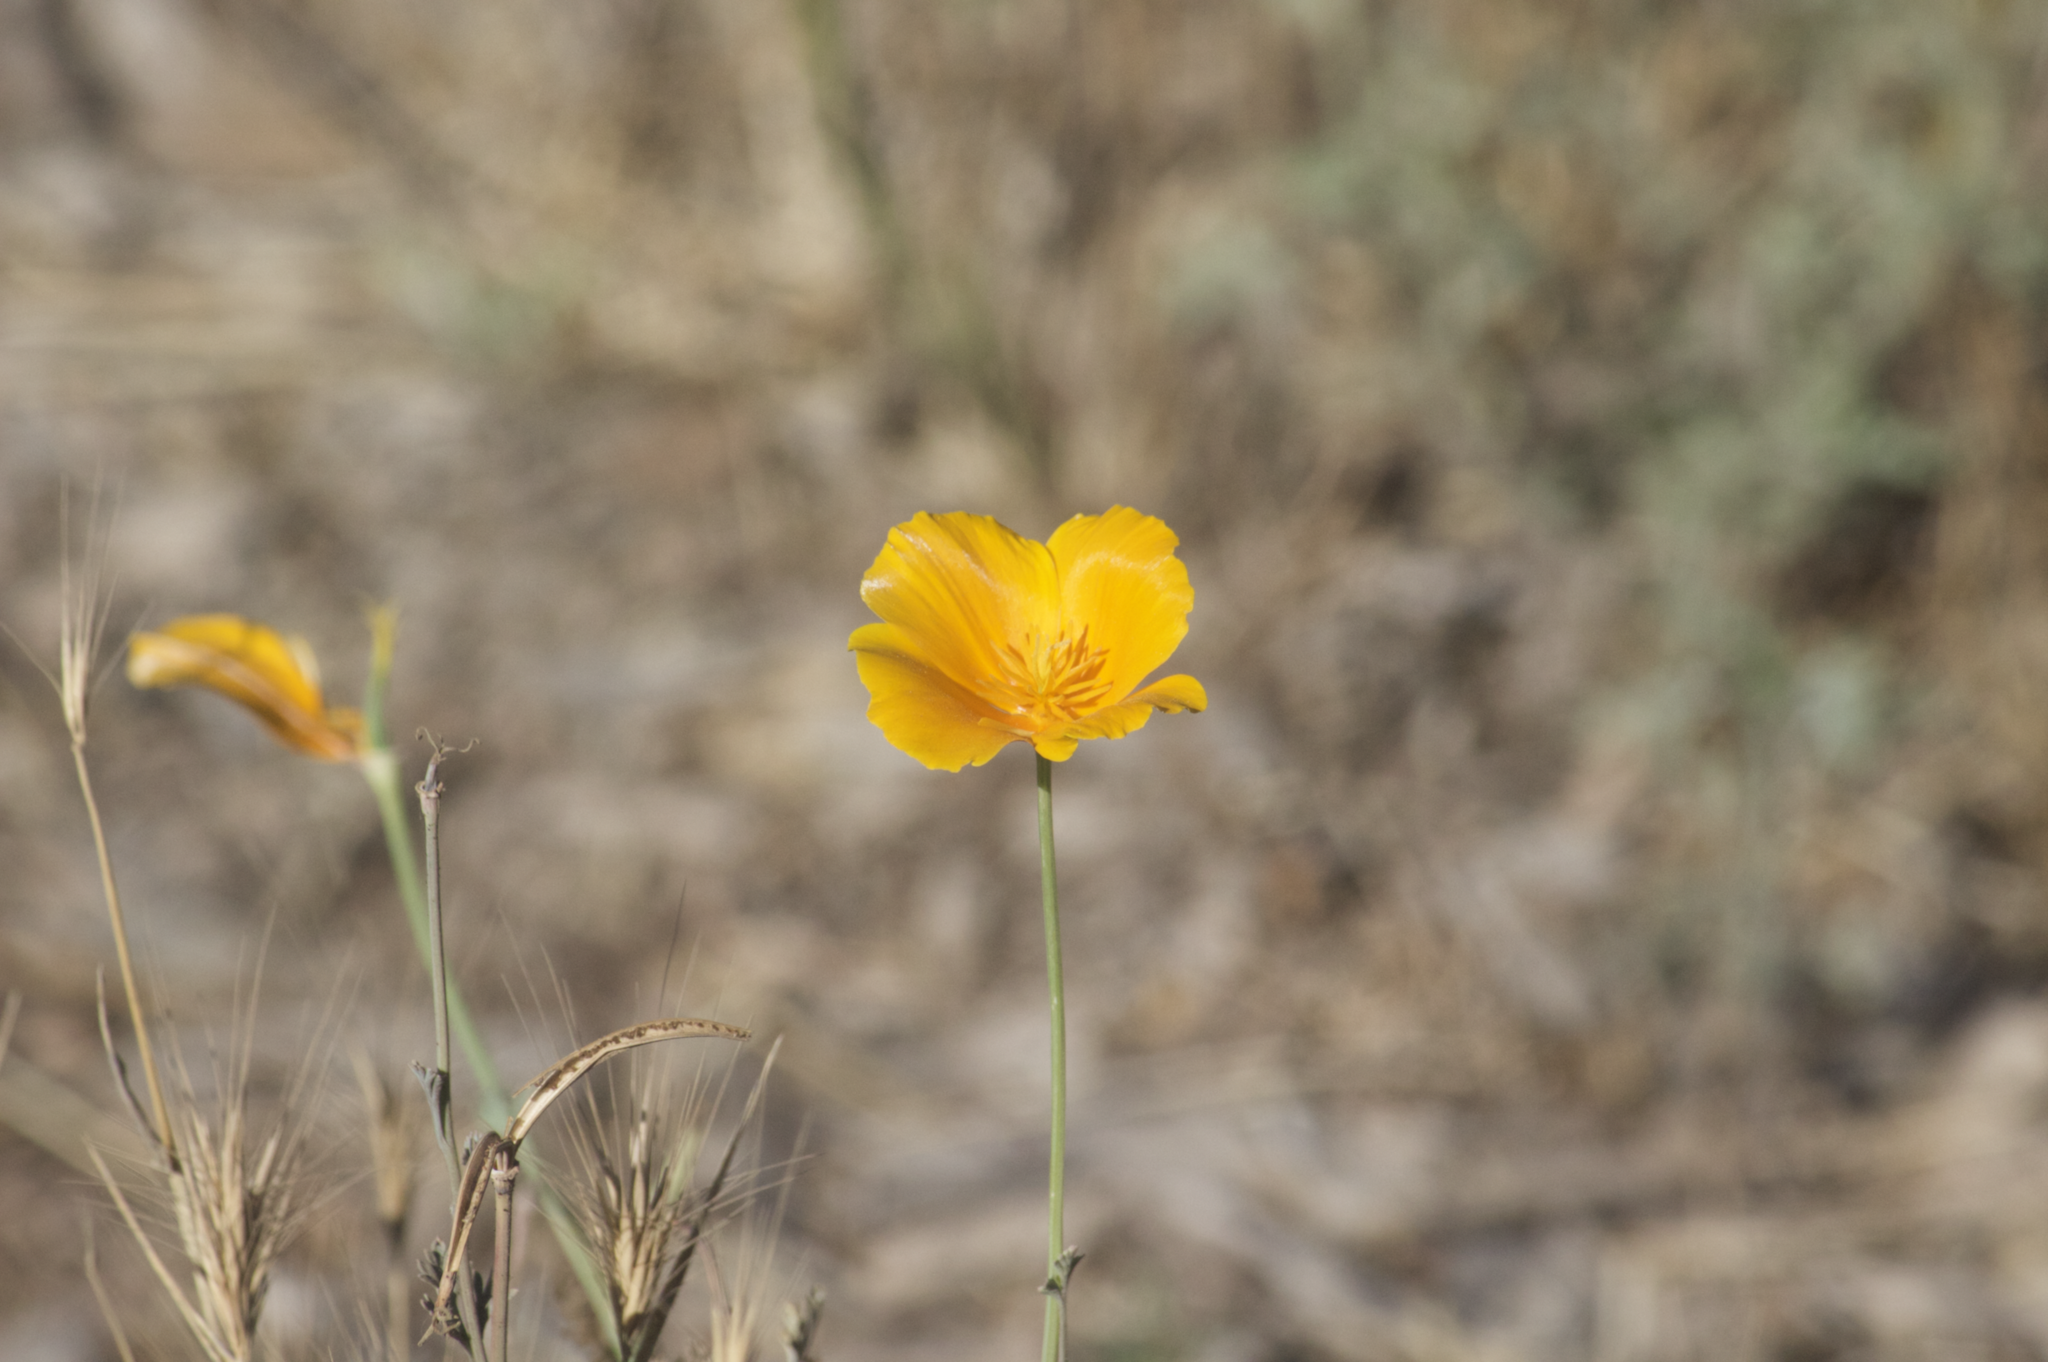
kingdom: Plantae
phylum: Tracheophyta
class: Magnoliopsida
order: Ranunculales
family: Papaveraceae
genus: Eschscholzia
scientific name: Eschscholzia californica
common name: California poppy
